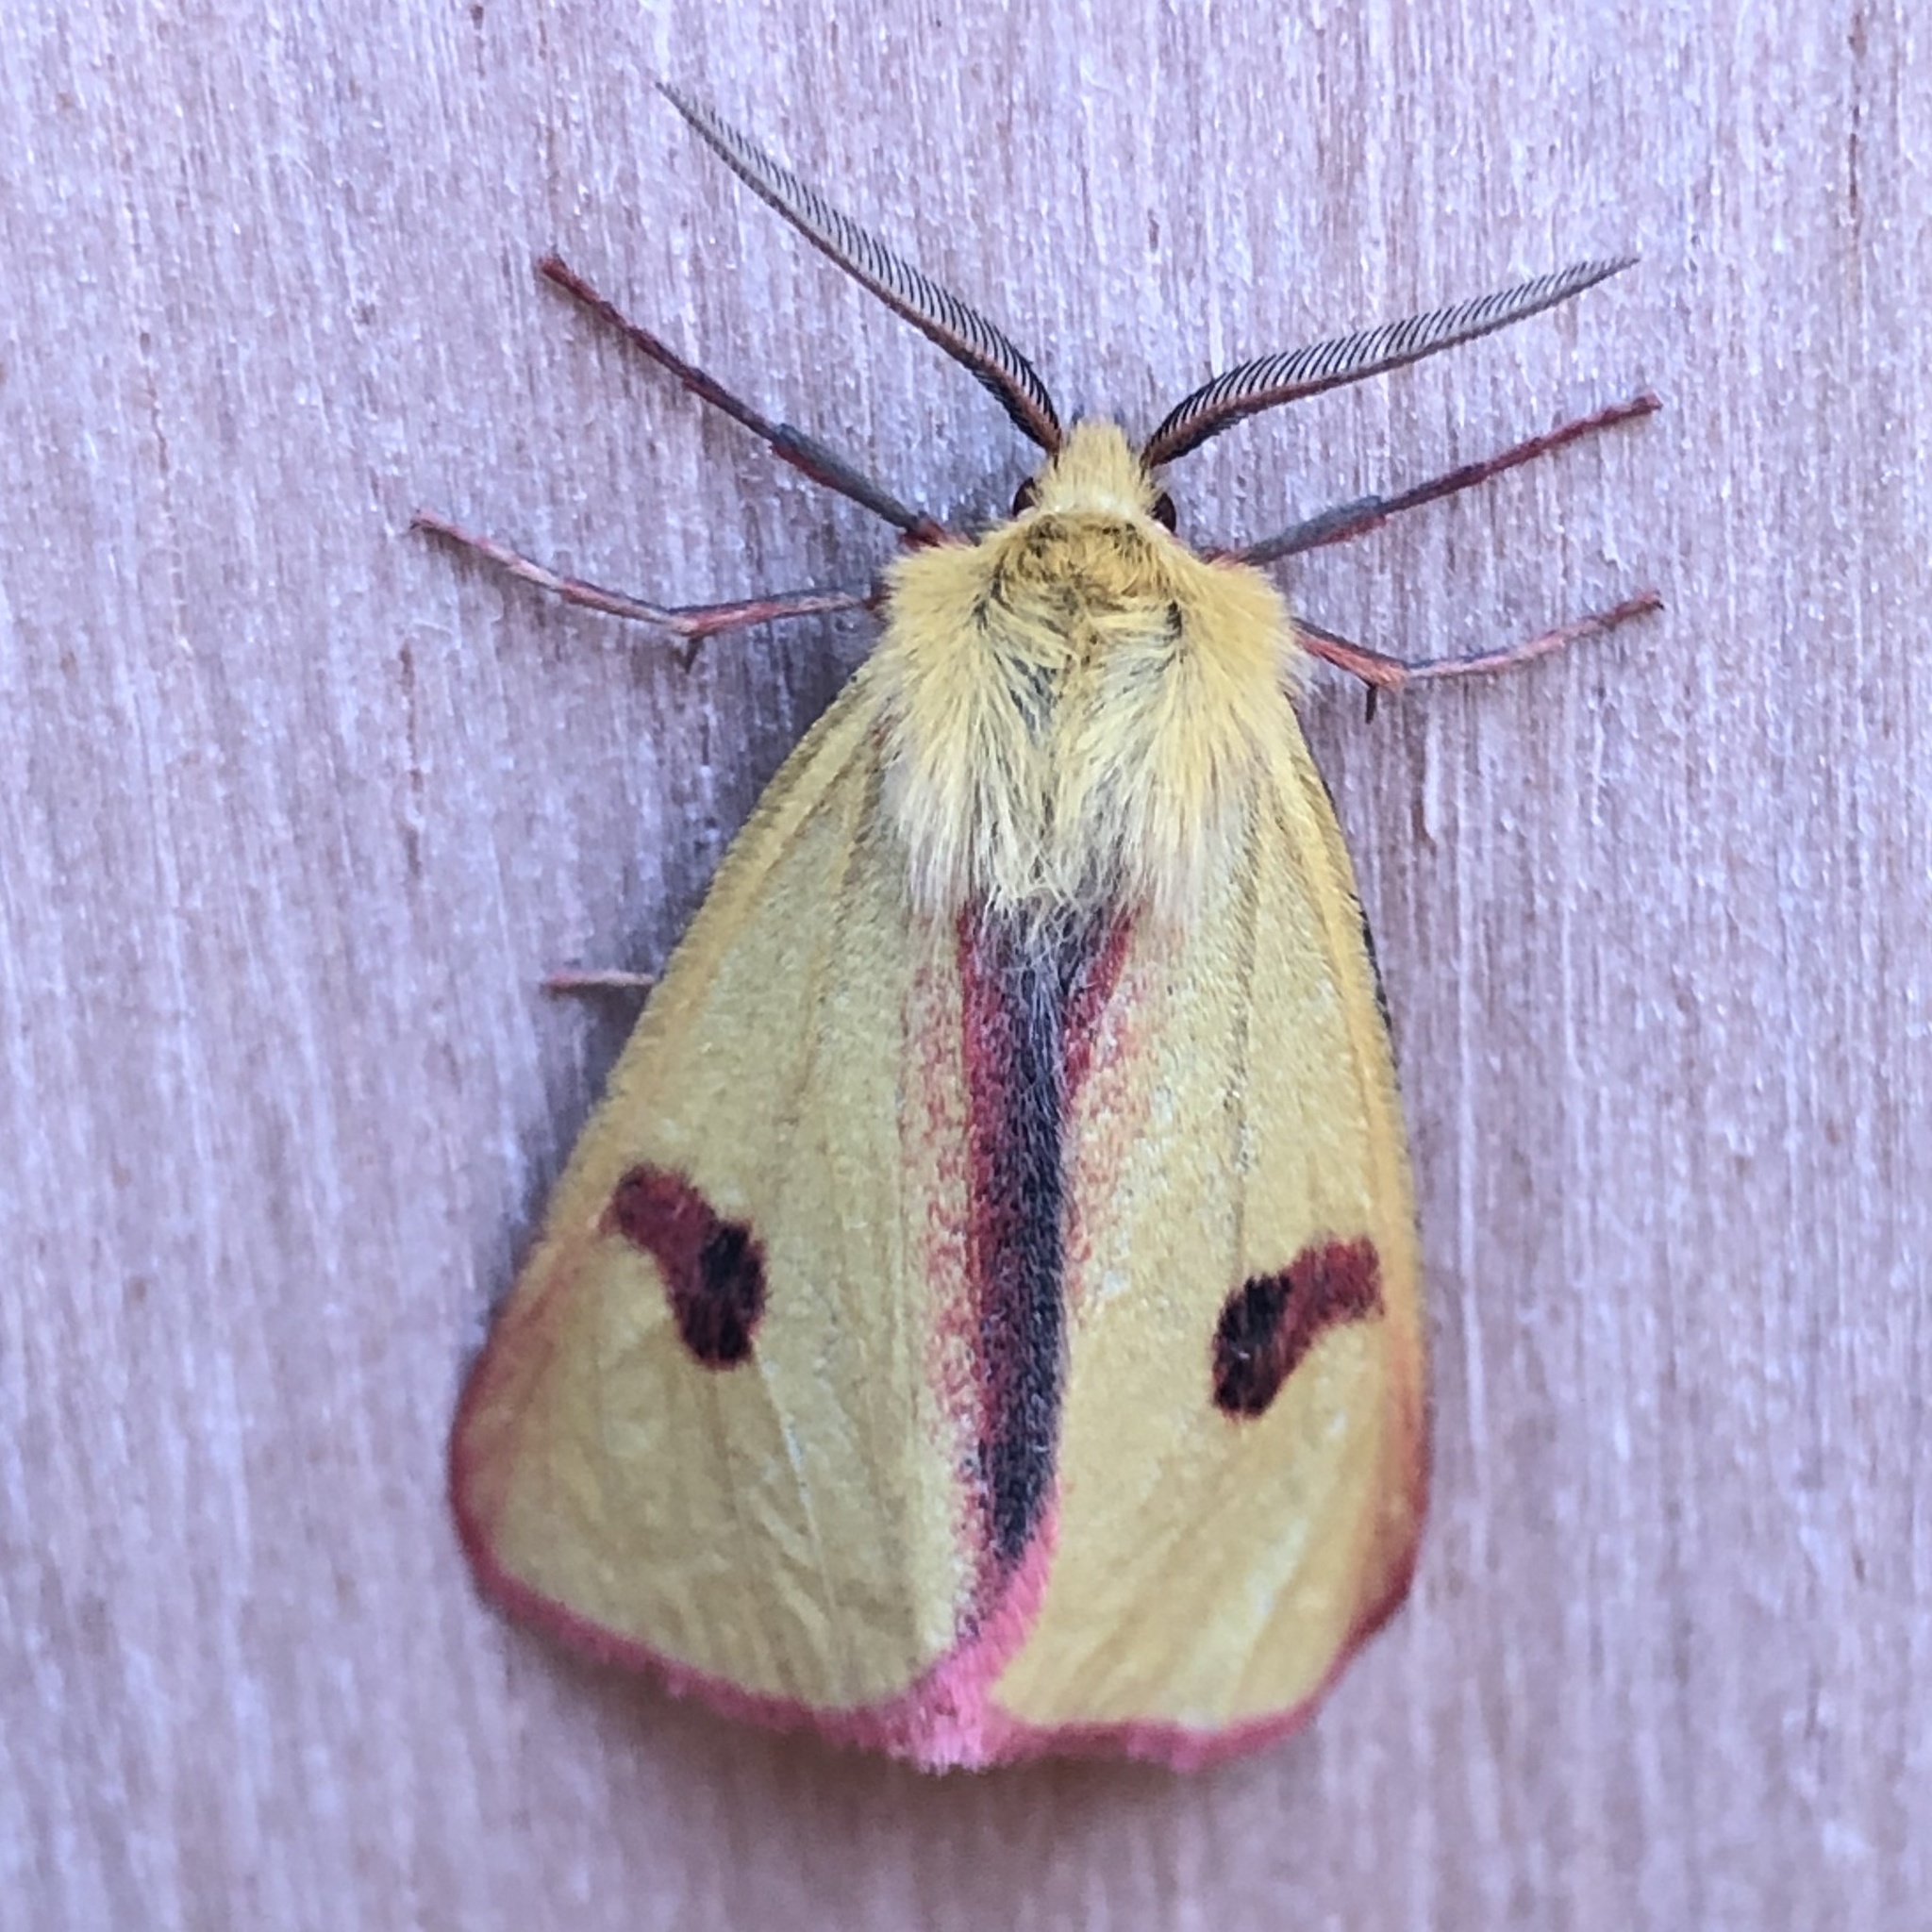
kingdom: Animalia
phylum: Arthropoda
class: Insecta
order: Lepidoptera
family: Erebidae
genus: Diacrisia
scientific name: Diacrisia sannio
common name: Clouded buff
